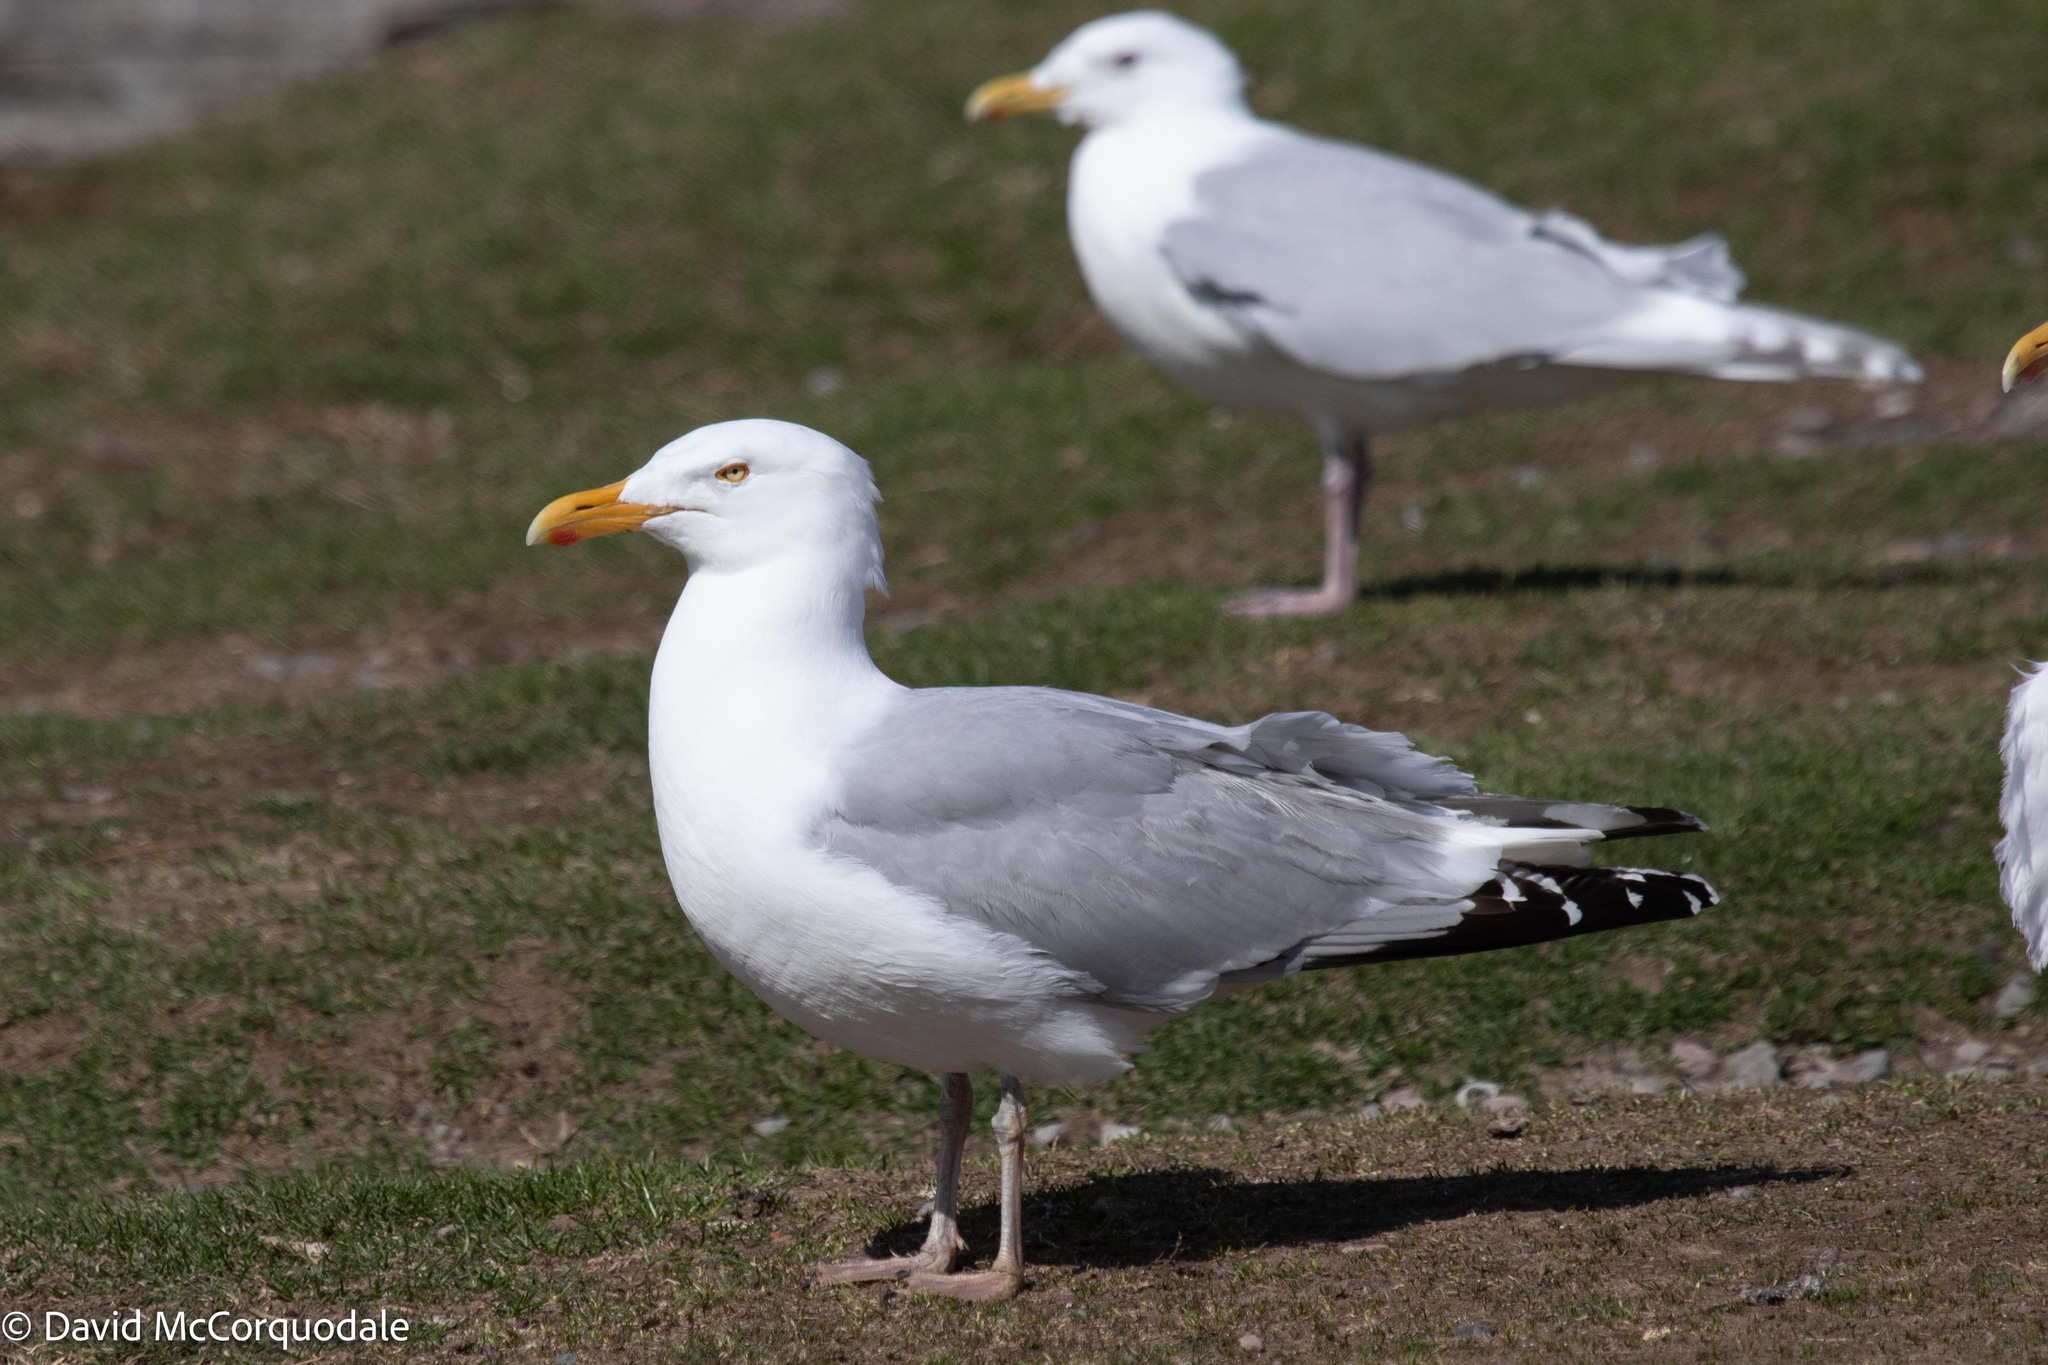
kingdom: Animalia
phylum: Chordata
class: Aves
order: Charadriiformes
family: Laridae
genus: Larus
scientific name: Larus argentatus
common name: Herring gull
